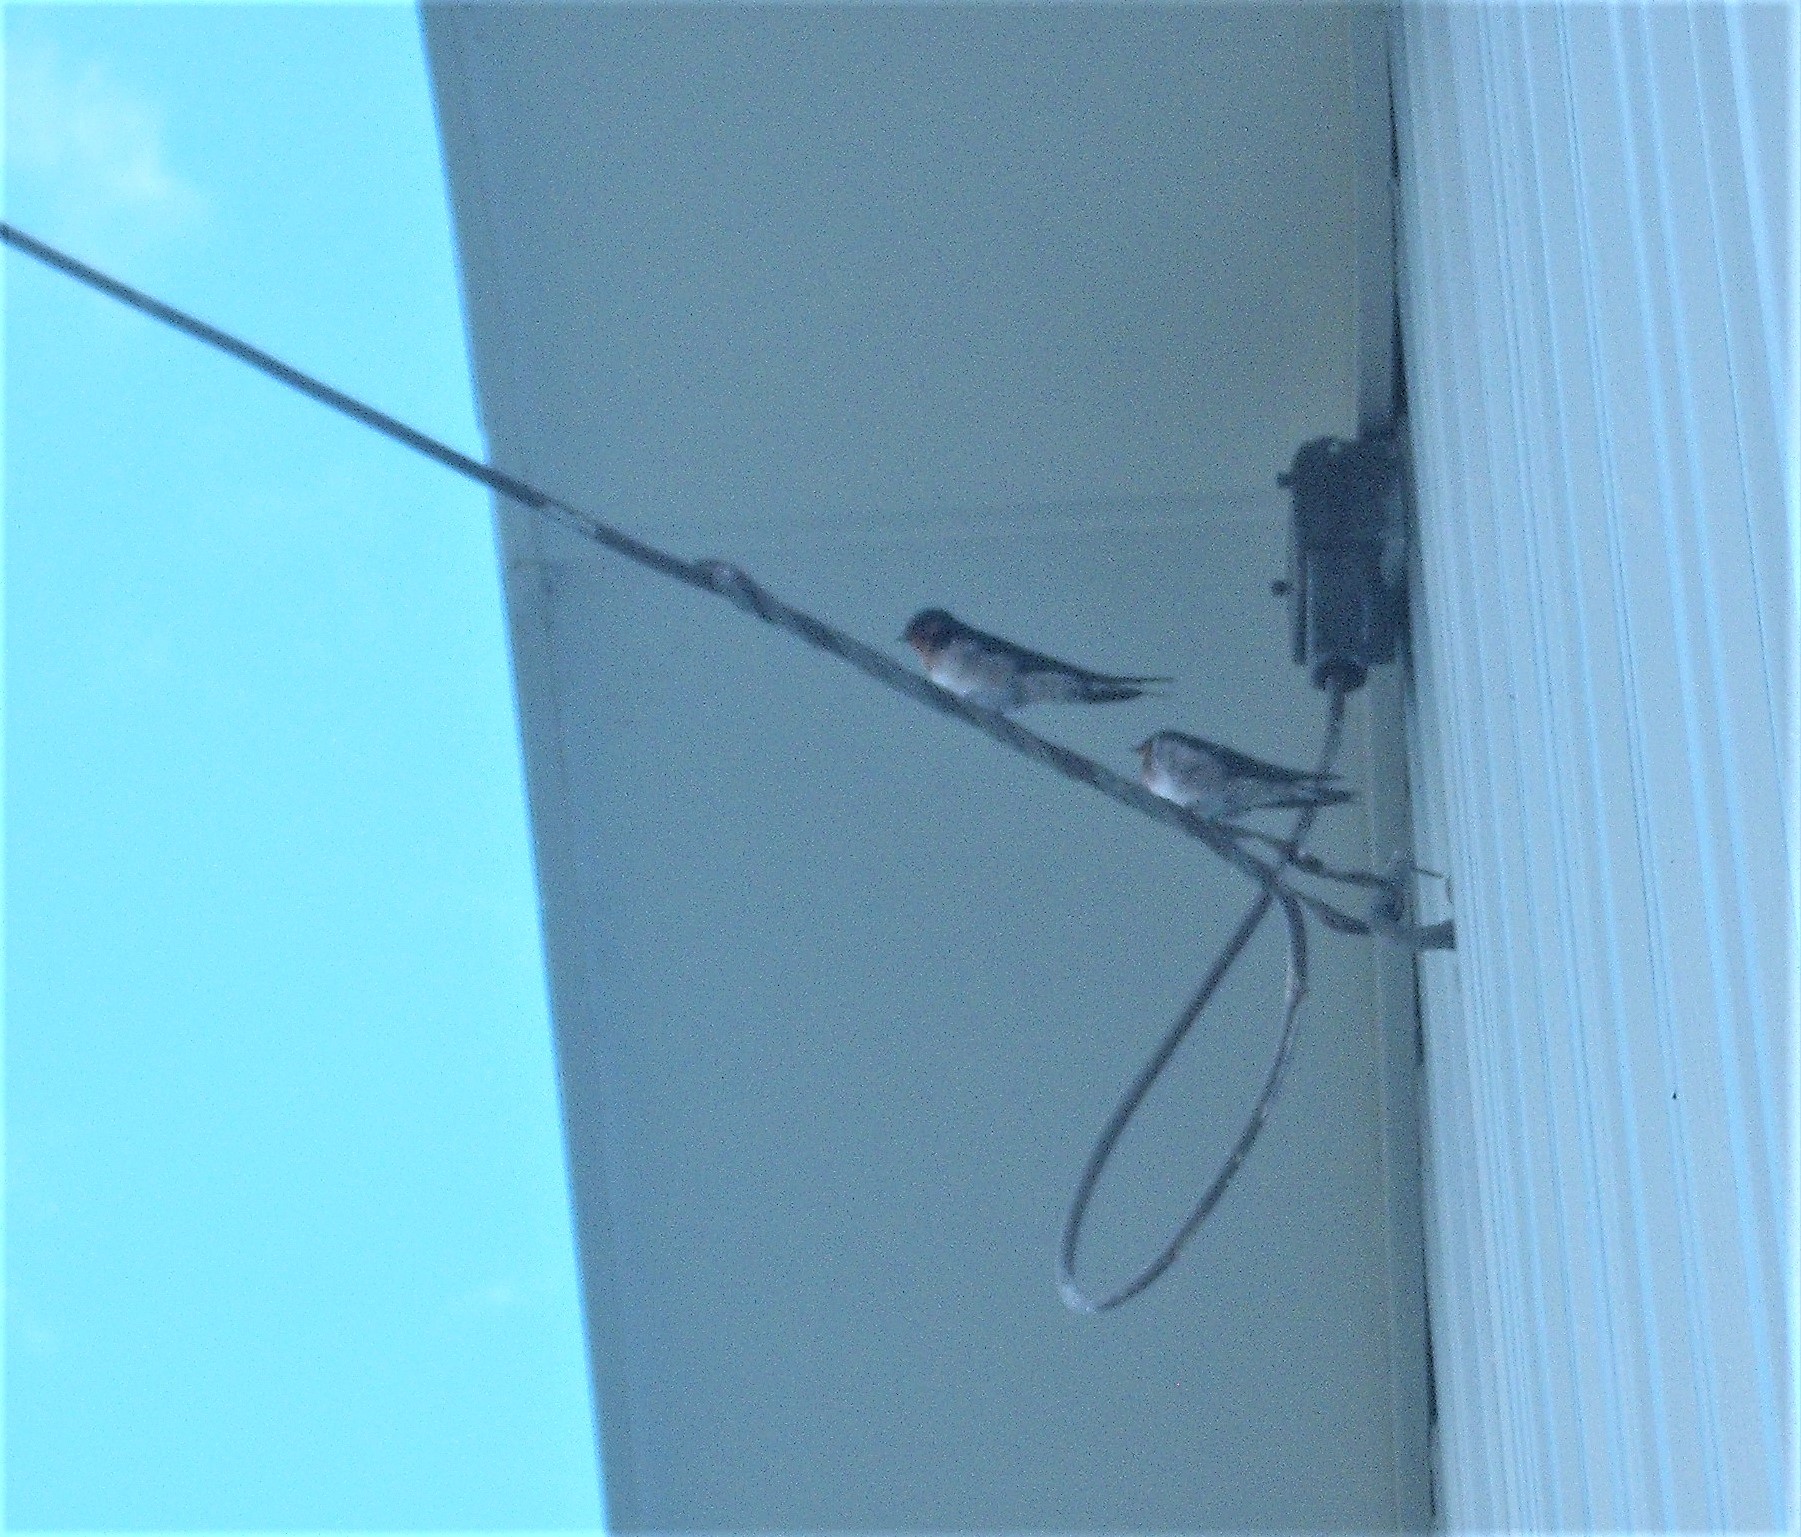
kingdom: Animalia
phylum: Chordata
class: Aves
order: Passeriformes
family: Hirundinidae
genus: Hirundo
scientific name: Hirundo neoxena
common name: Welcome swallow
